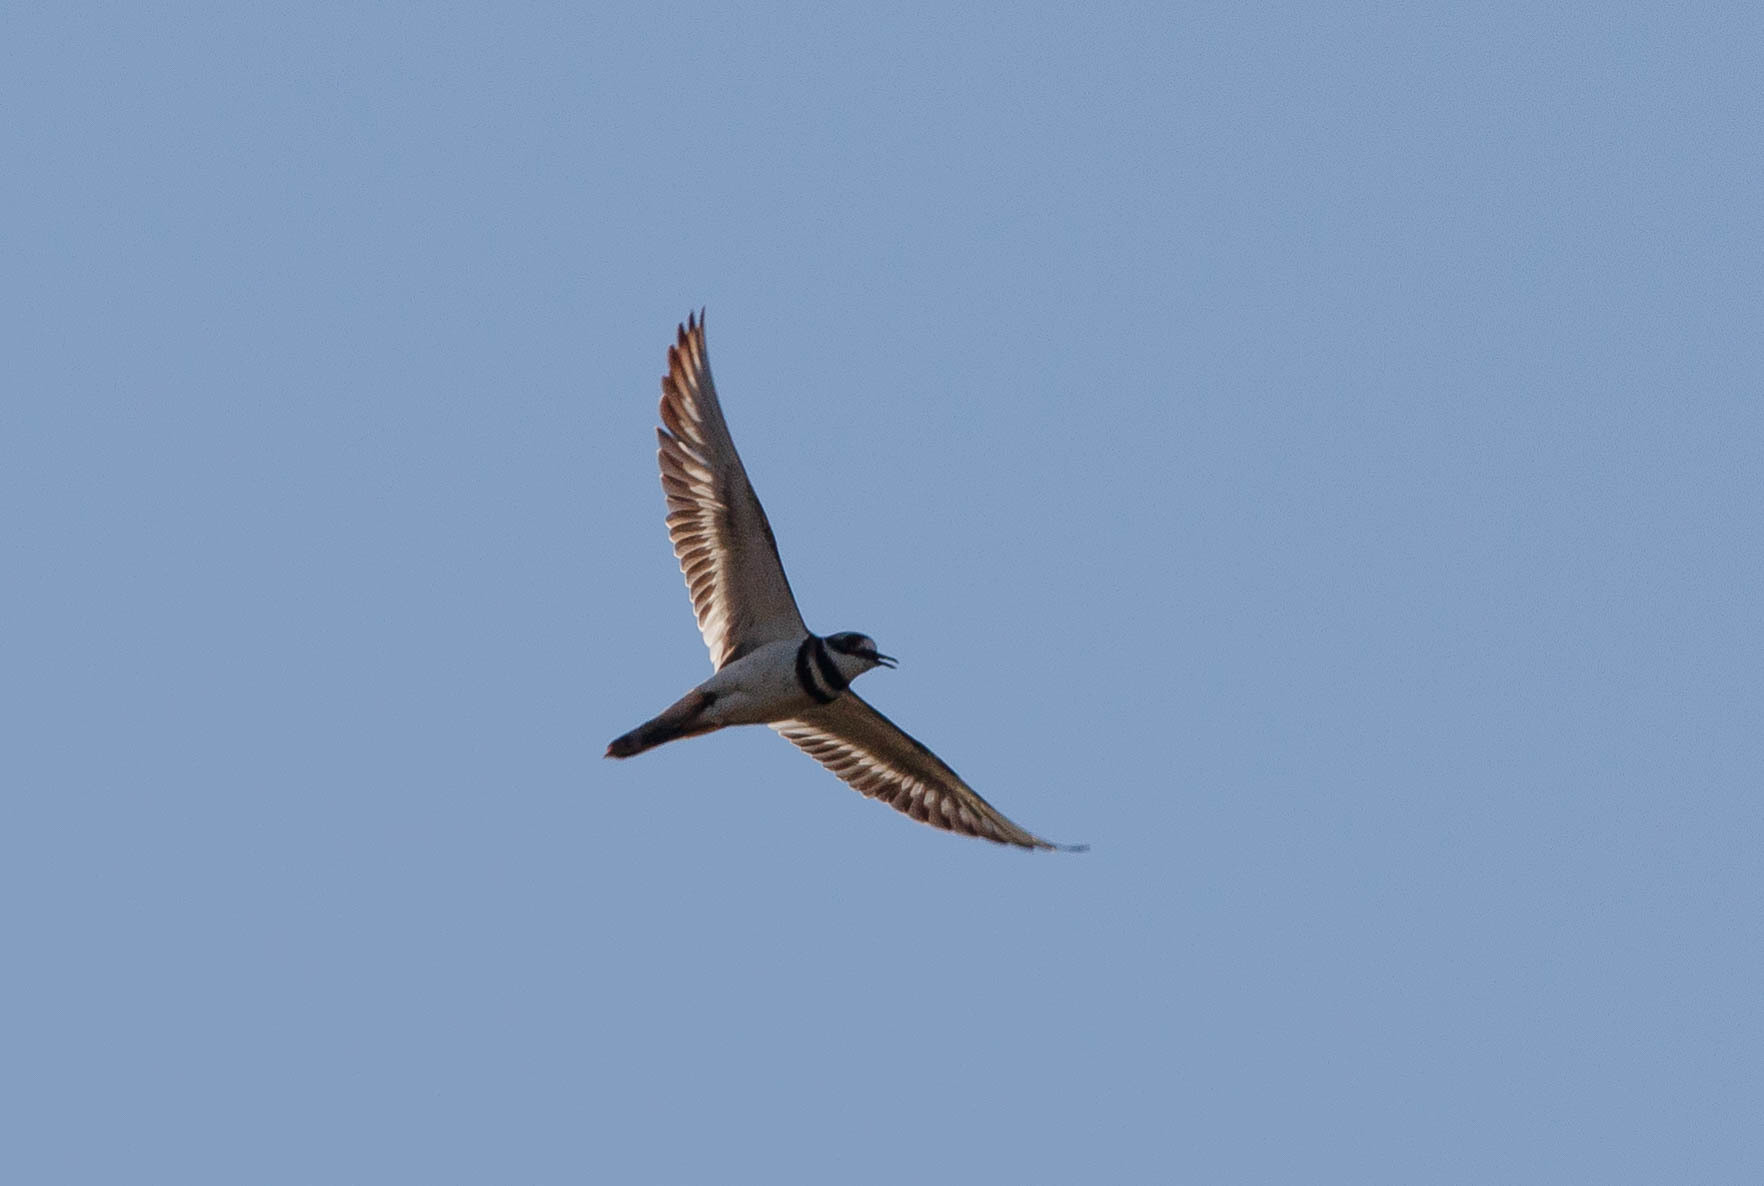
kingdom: Animalia
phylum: Chordata
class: Aves
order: Charadriiformes
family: Charadriidae
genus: Charadrius
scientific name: Charadrius vociferus
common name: Killdeer
